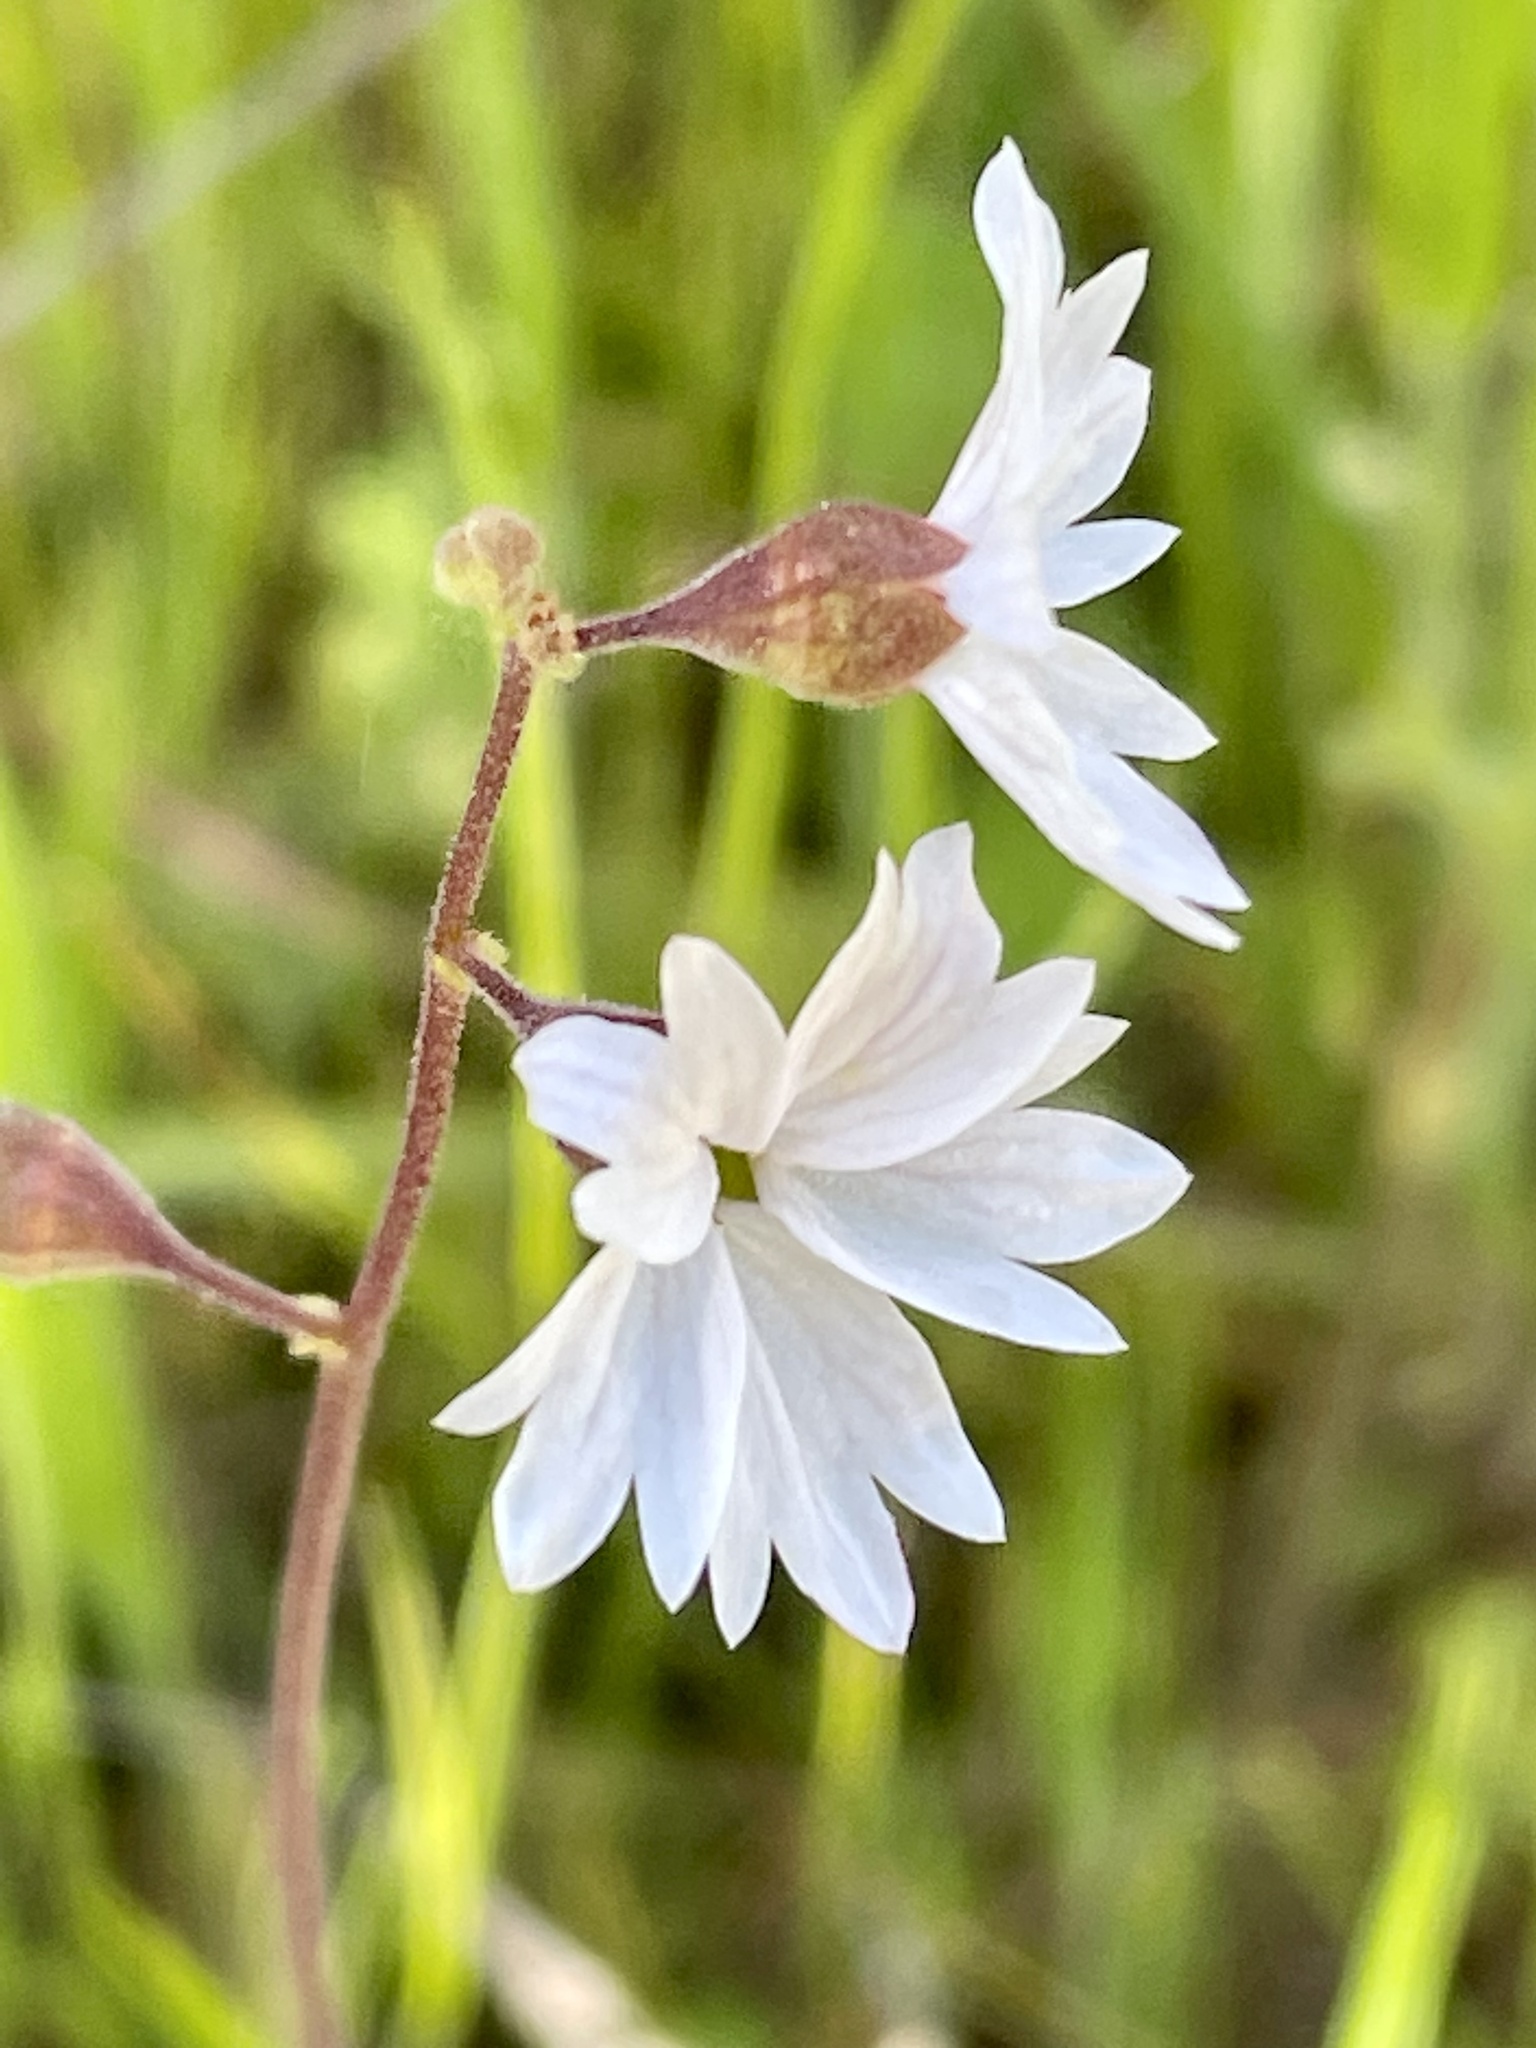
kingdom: Plantae
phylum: Tracheophyta
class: Magnoliopsida
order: Saxifragales
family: Saxifragaceae
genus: Lithophragma
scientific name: Lithophragma affine
